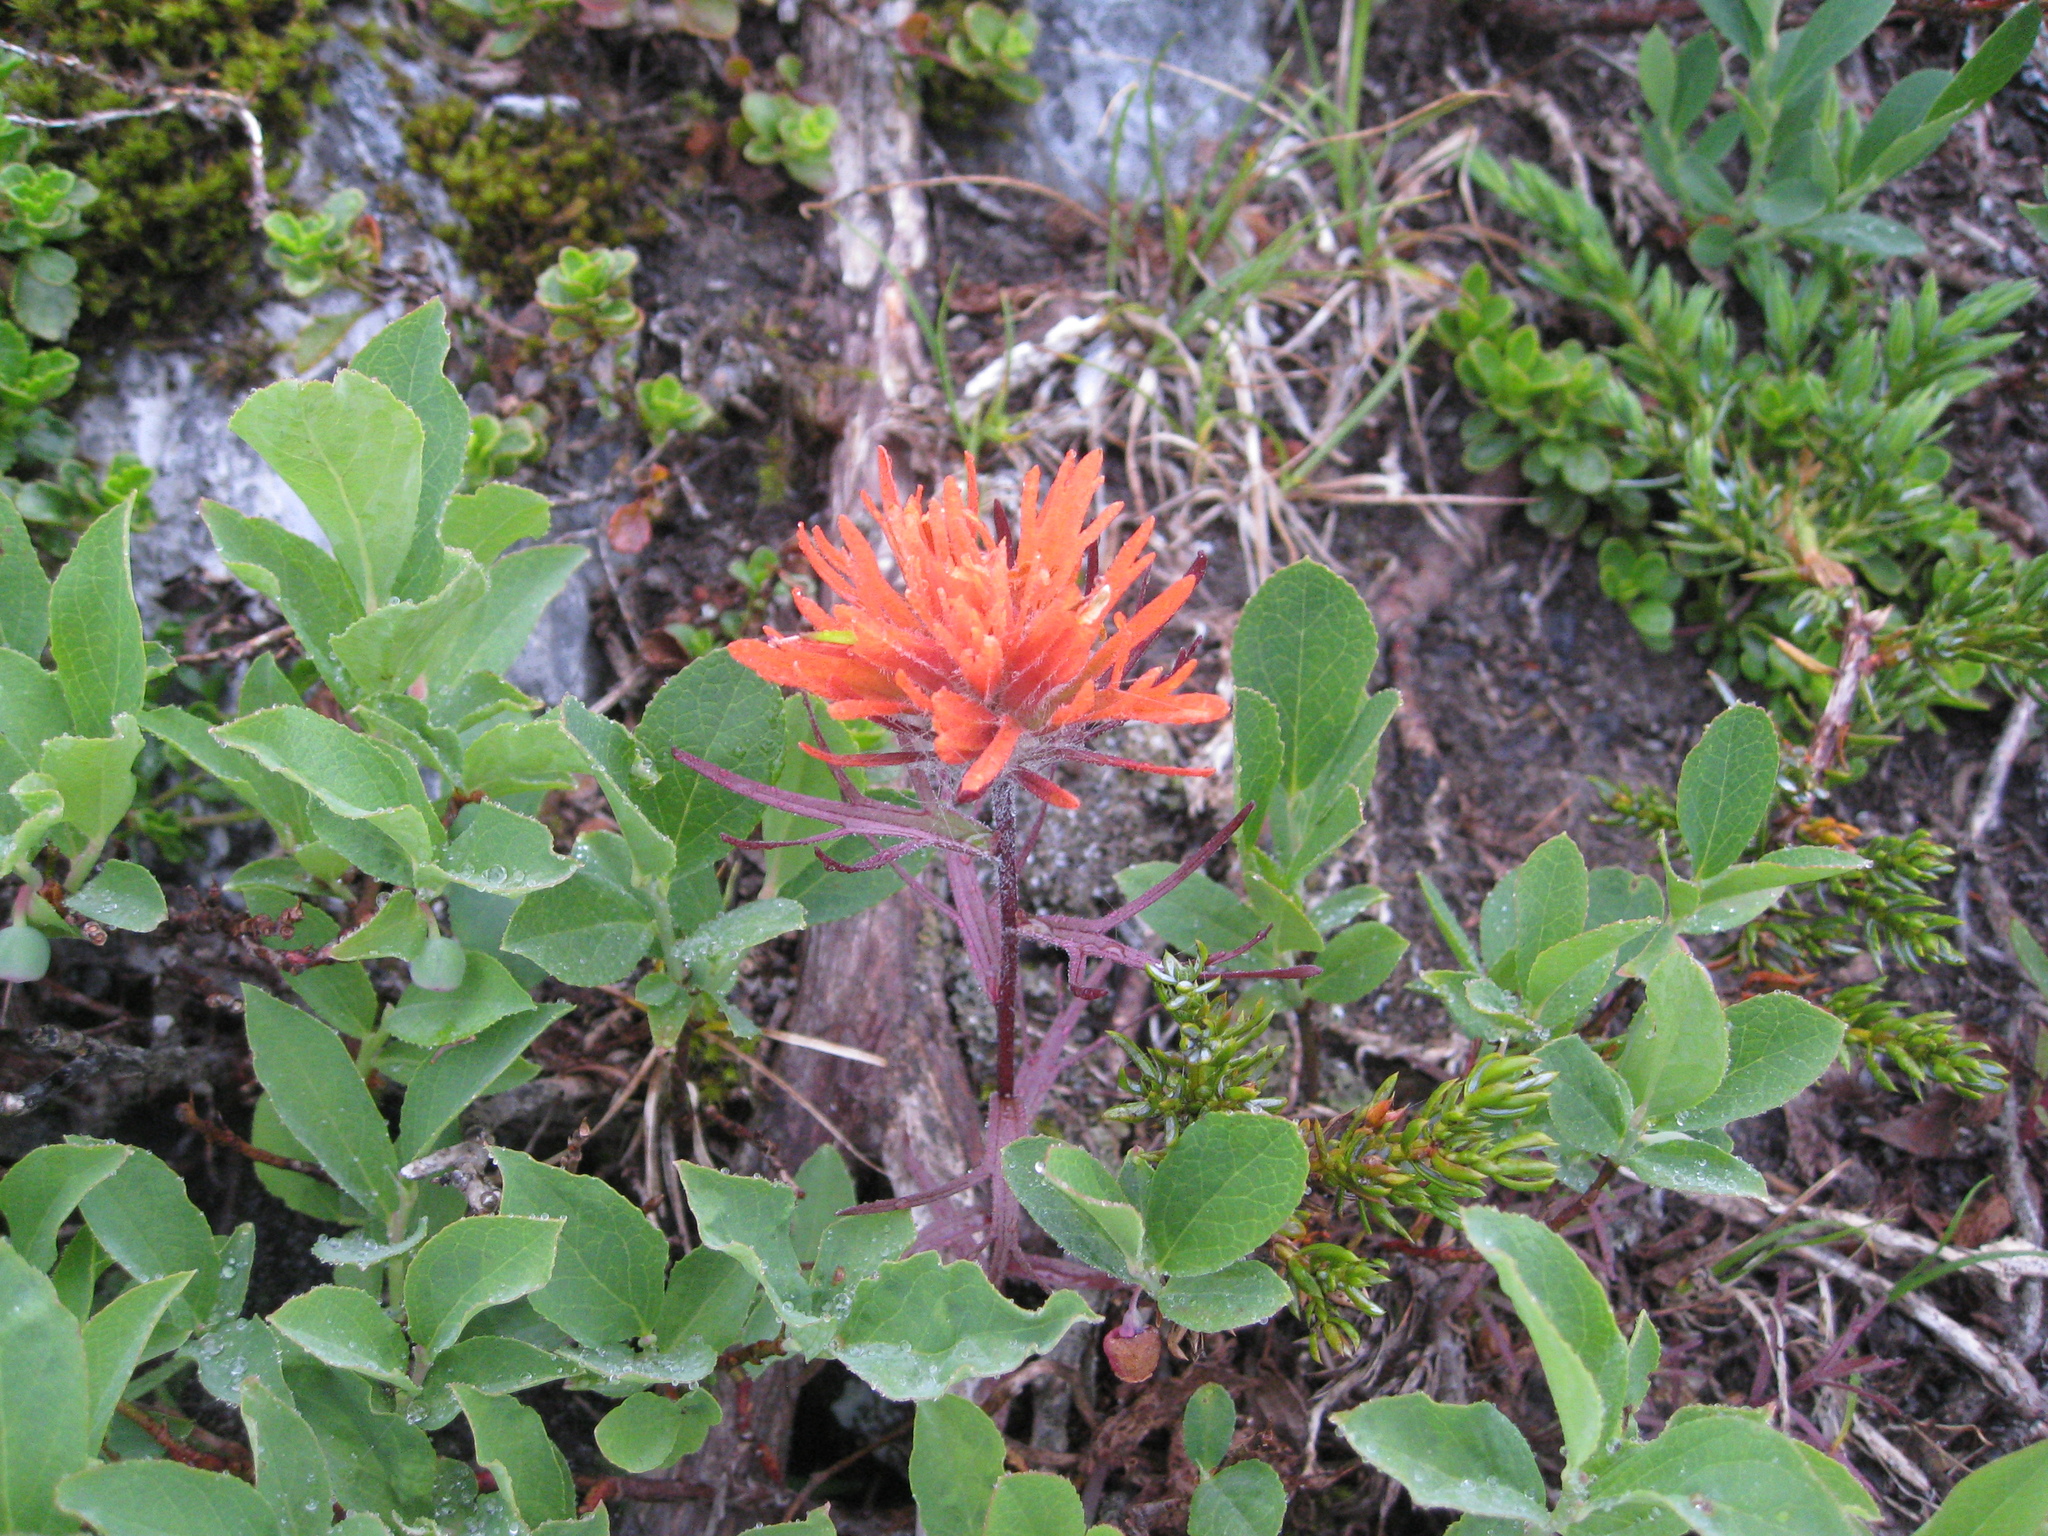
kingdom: Plantae
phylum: Tracheophyta
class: Magnoliopsida
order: Lamiales
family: Orobanchaceae
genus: Castilleja
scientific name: Castilleja rupicola
